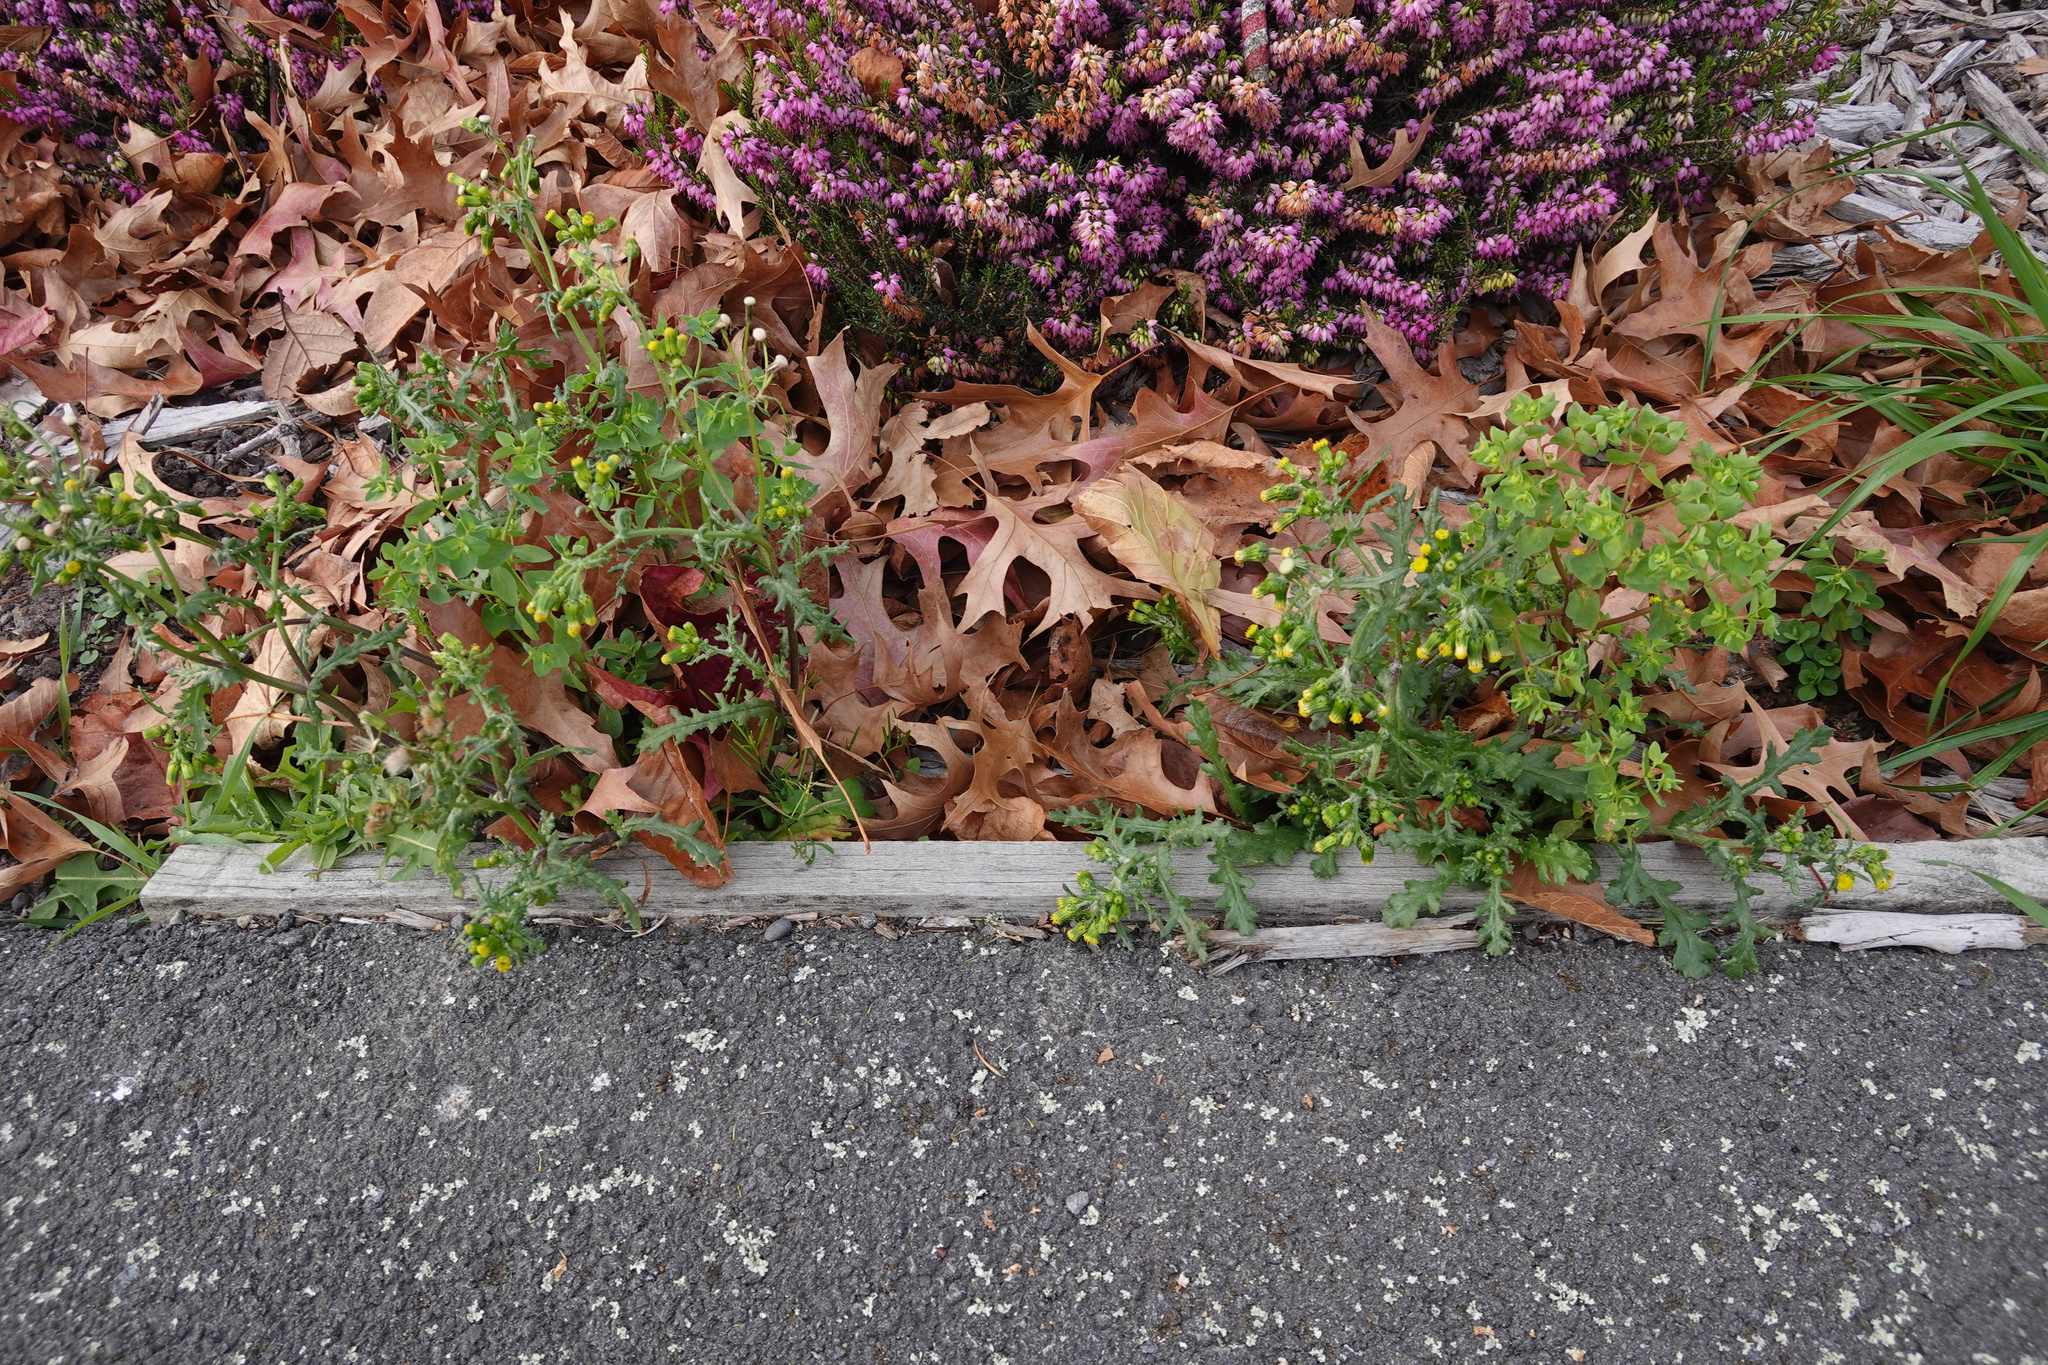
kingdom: Plantae
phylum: Tracheophyta
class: Magnoliopsida
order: Asterales
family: Asteraceae
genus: Senecio
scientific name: Senecio vulgaris
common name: Old-man-in-the-spring
